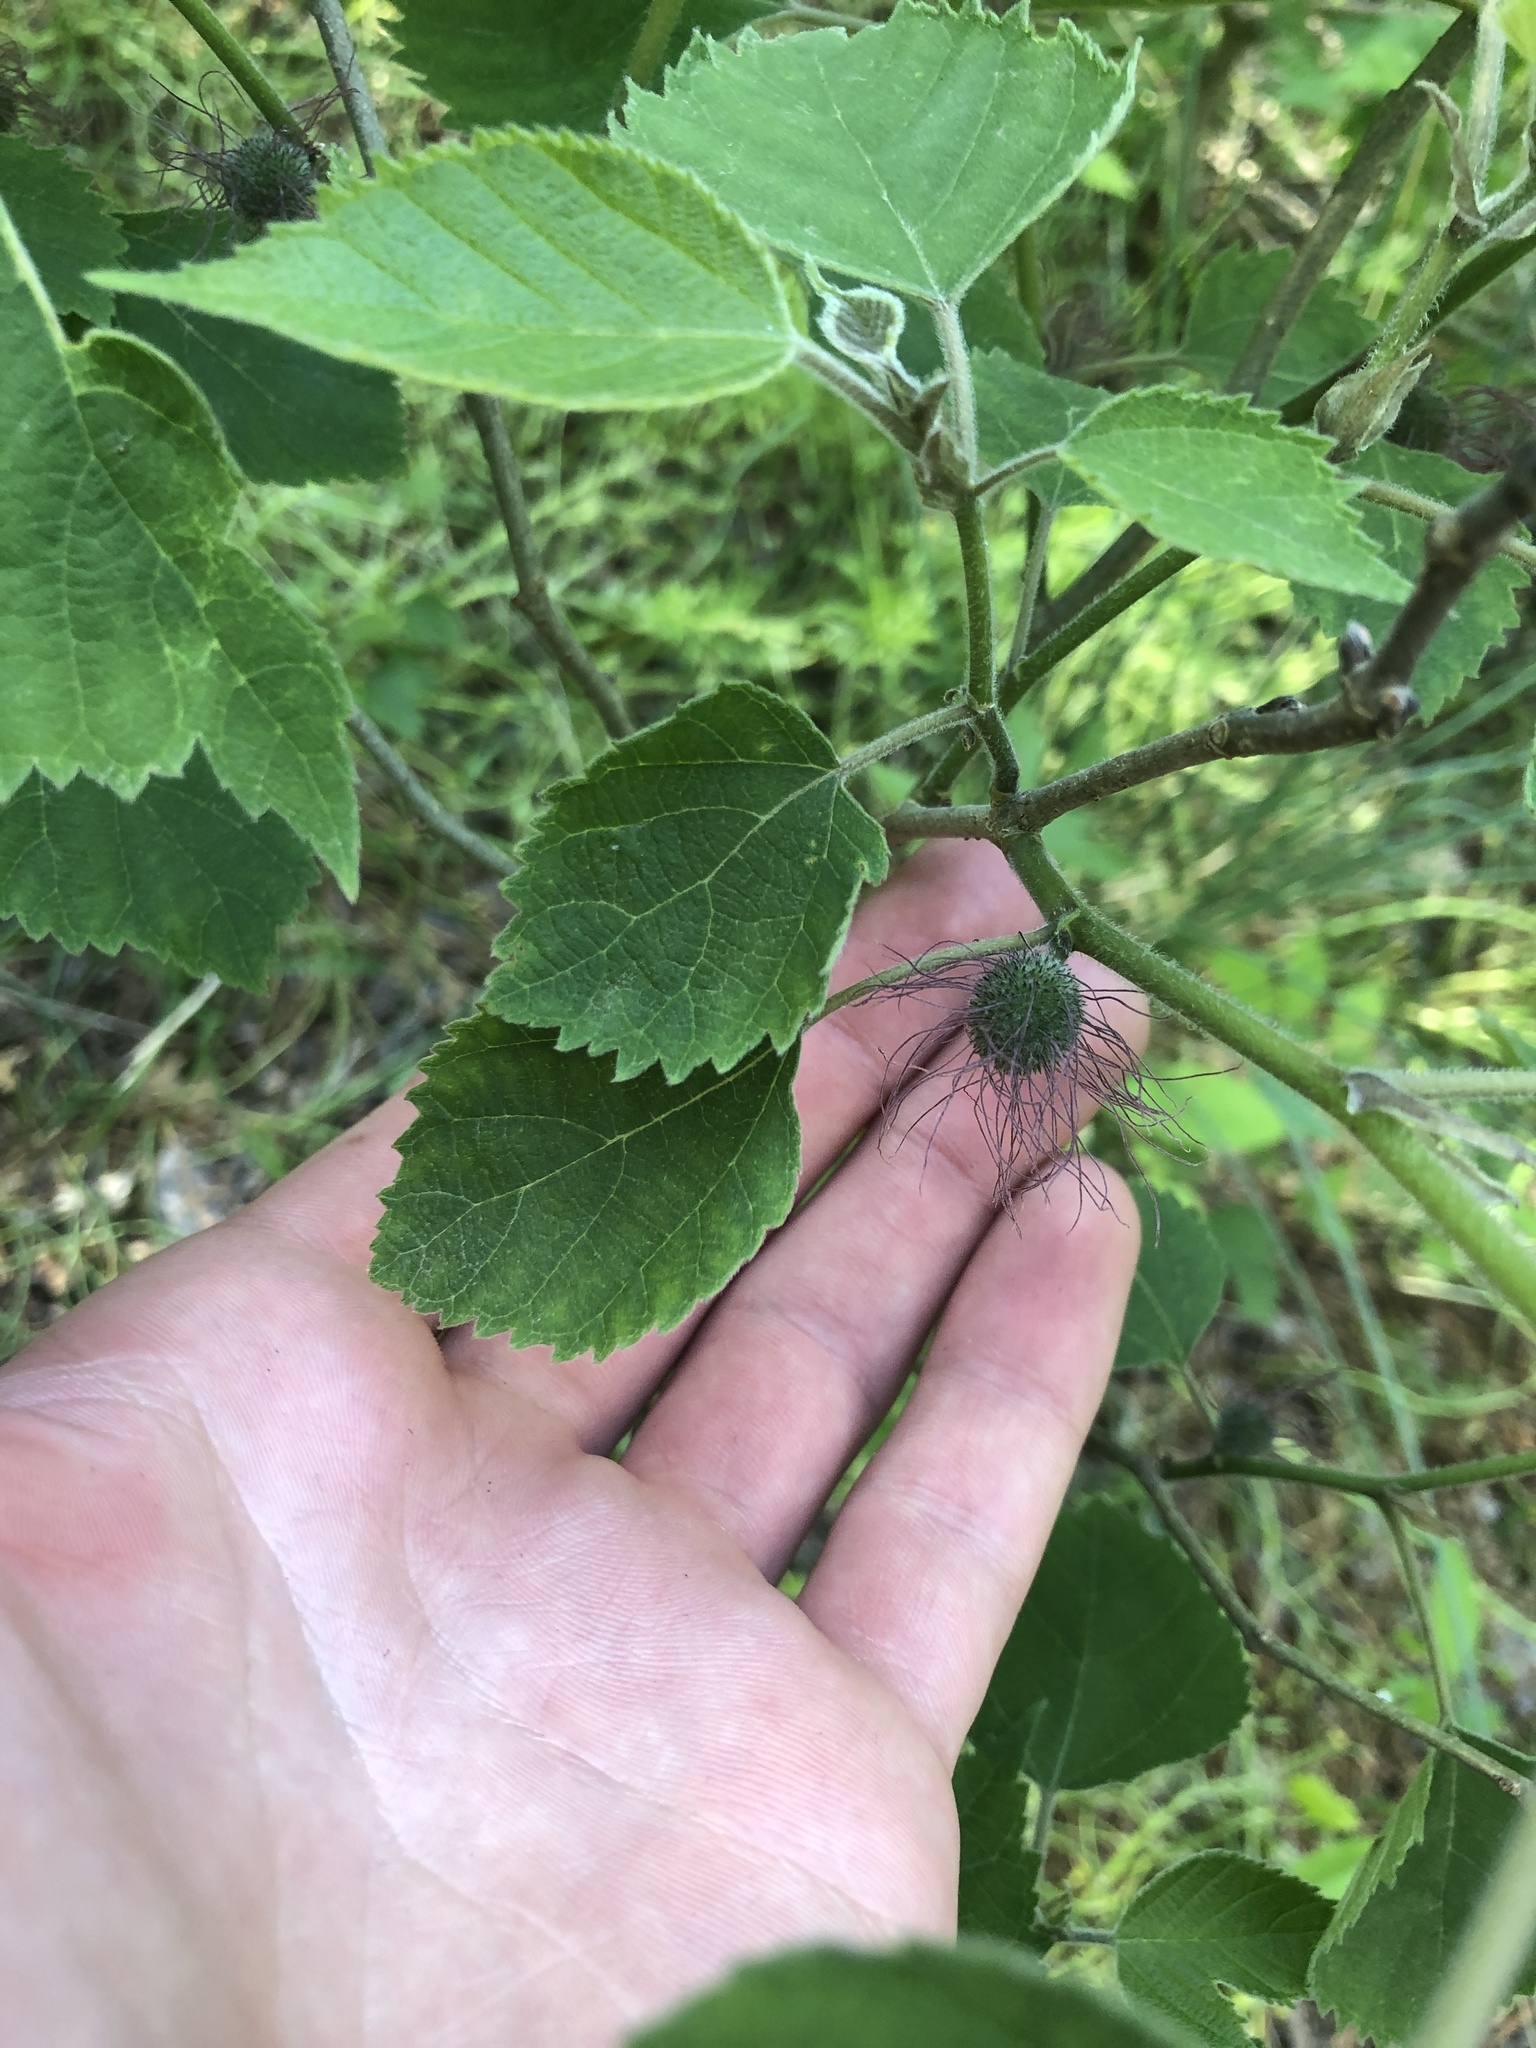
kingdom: Plantae
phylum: Tracheophyta
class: Magnoliopsida
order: Rosales
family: Moraceae
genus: Broussonetia
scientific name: Broussonetia papyrifera
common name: Paper mulberry
